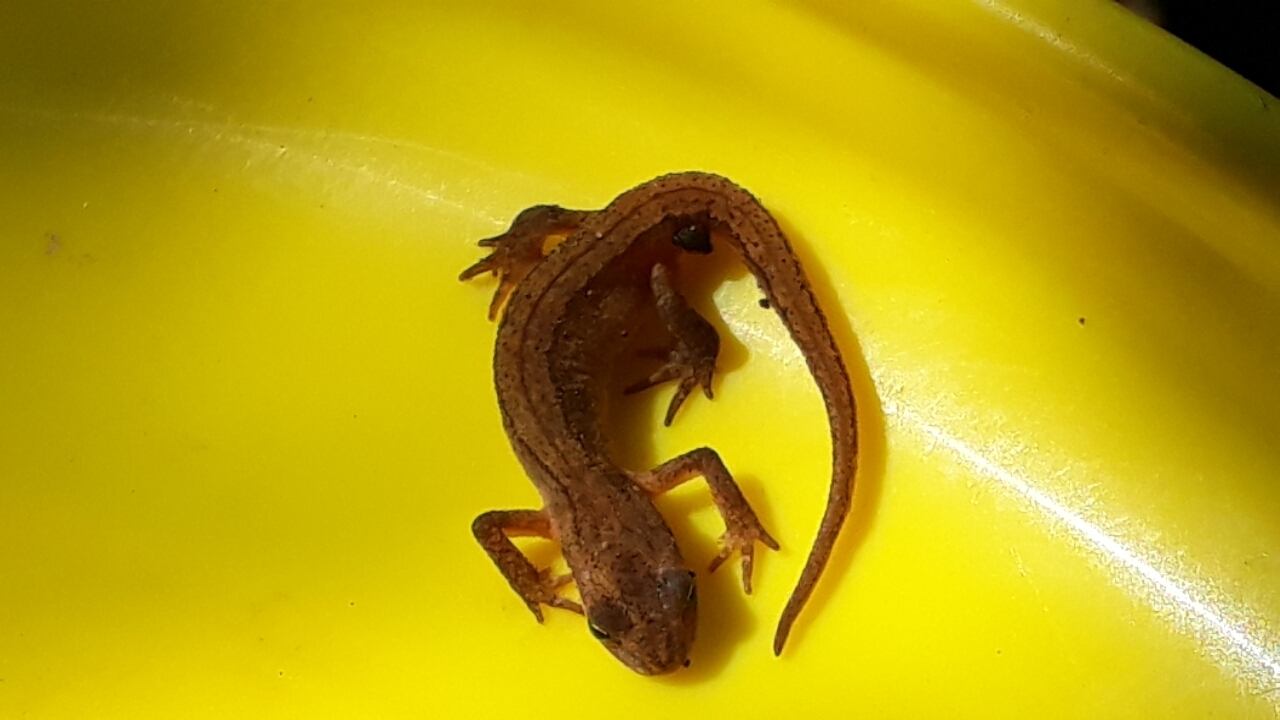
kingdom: Animalia
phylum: Chordata
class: Amphibia
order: Caudata
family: Salamandridae
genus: Lissotriton
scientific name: Lissotriton vulgaris
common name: Smooth newt
